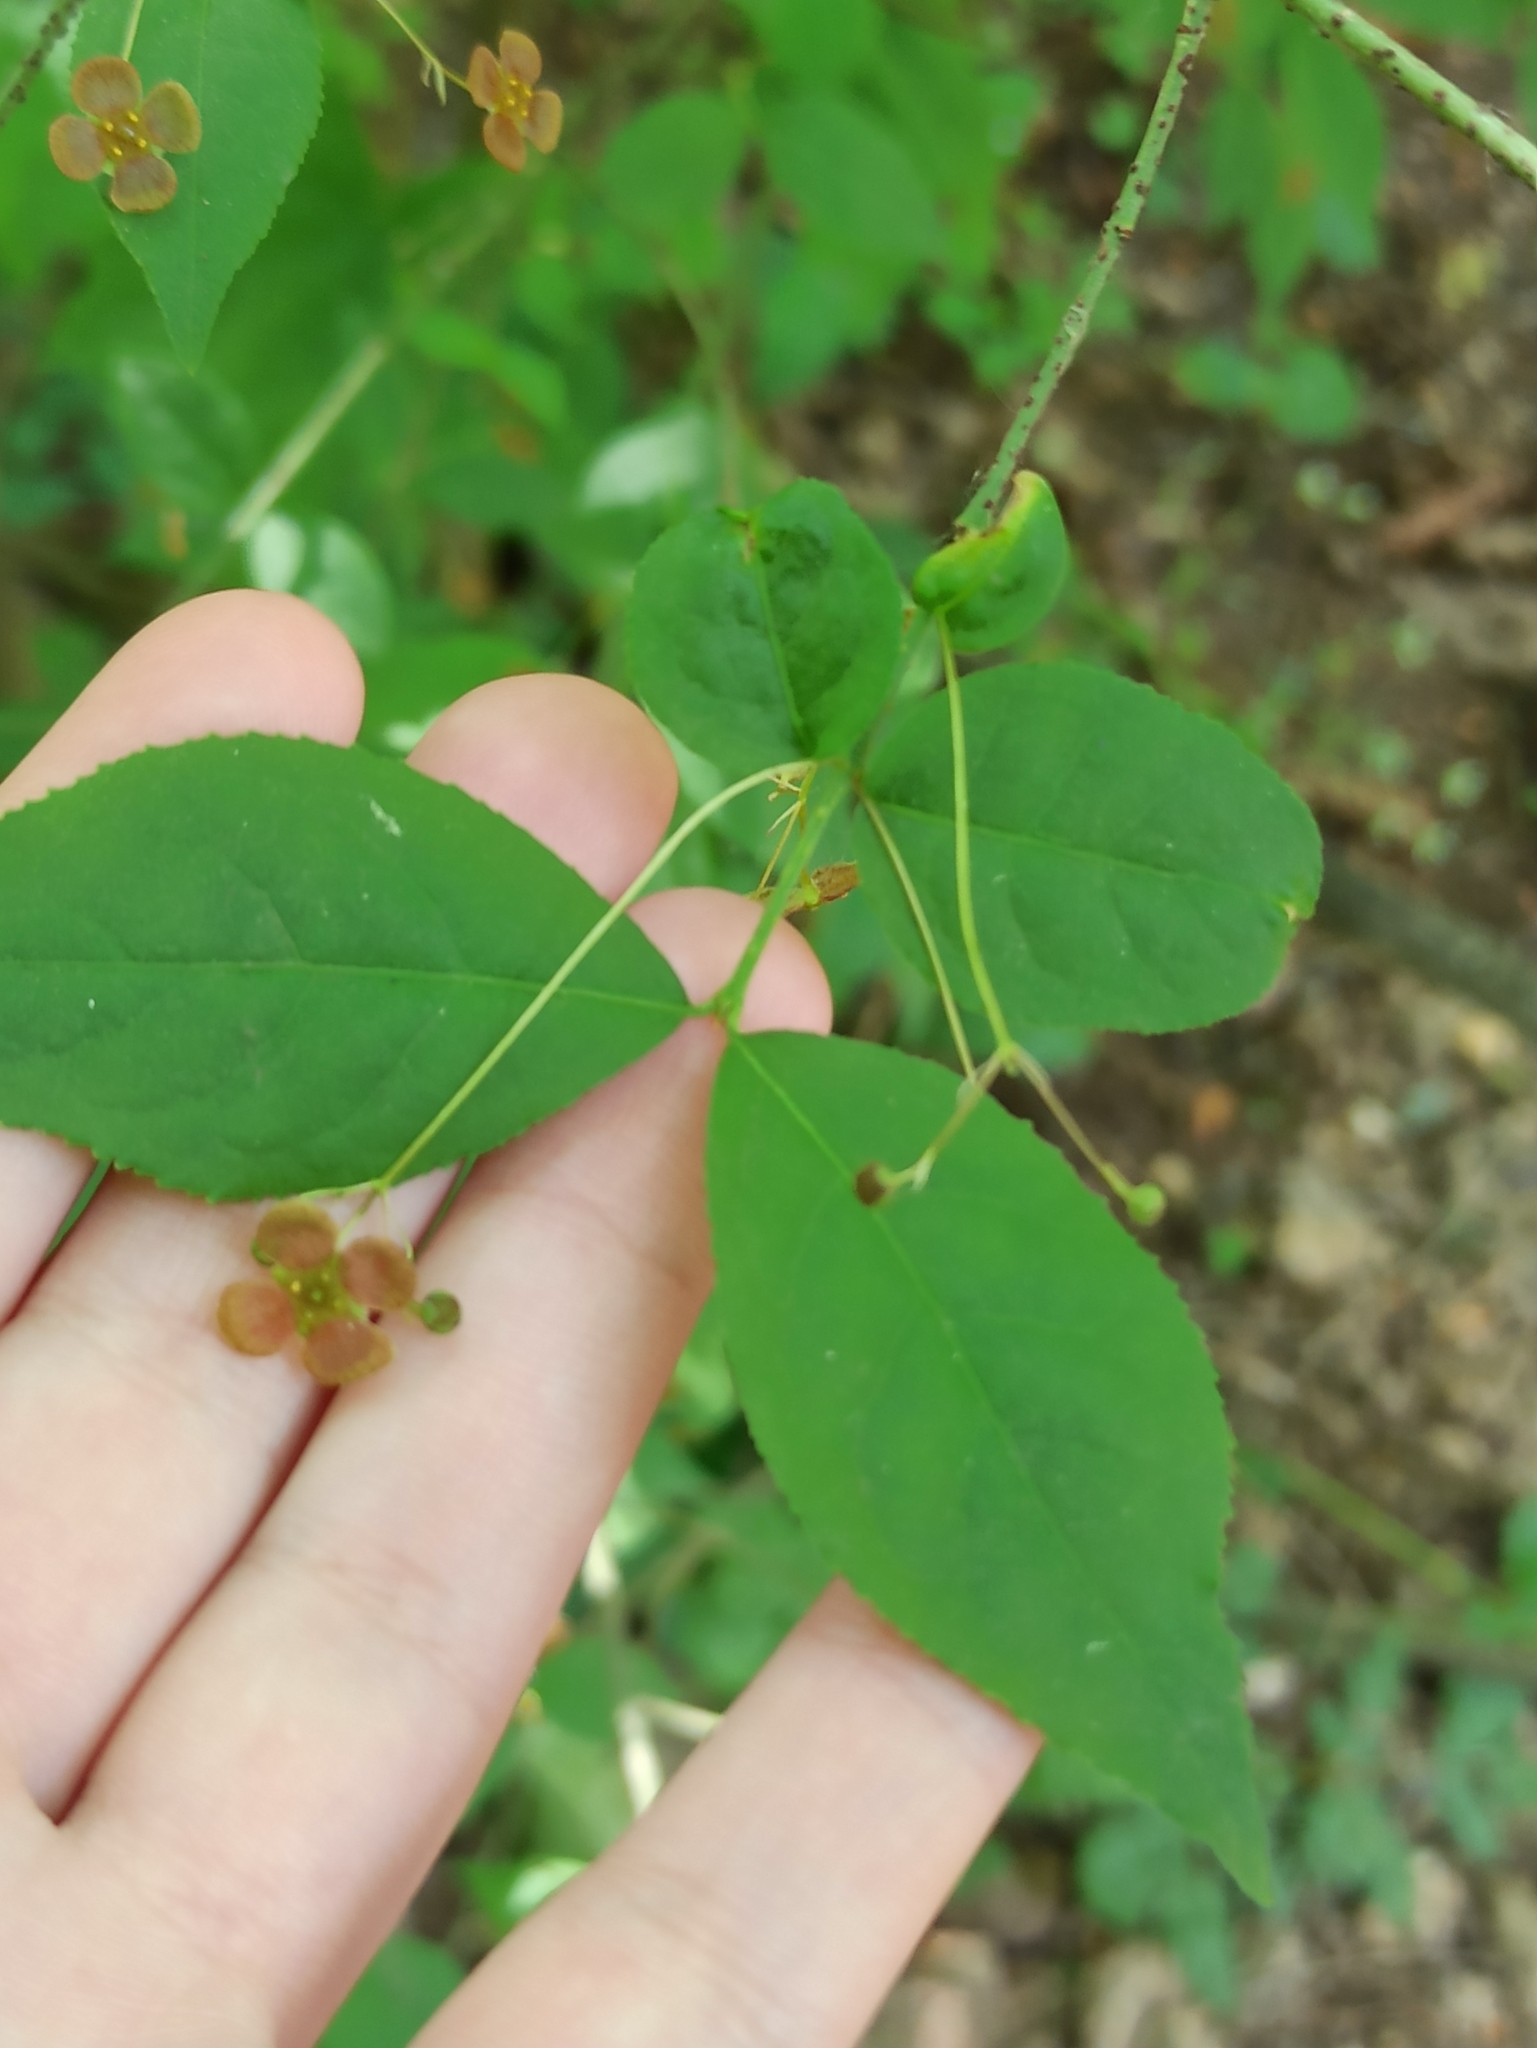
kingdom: Plantae
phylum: Tracheophyta
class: Magnoliopsida
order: Celastrales
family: Celastraceae
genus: Euonymus
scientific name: Euonymus verrucosus
